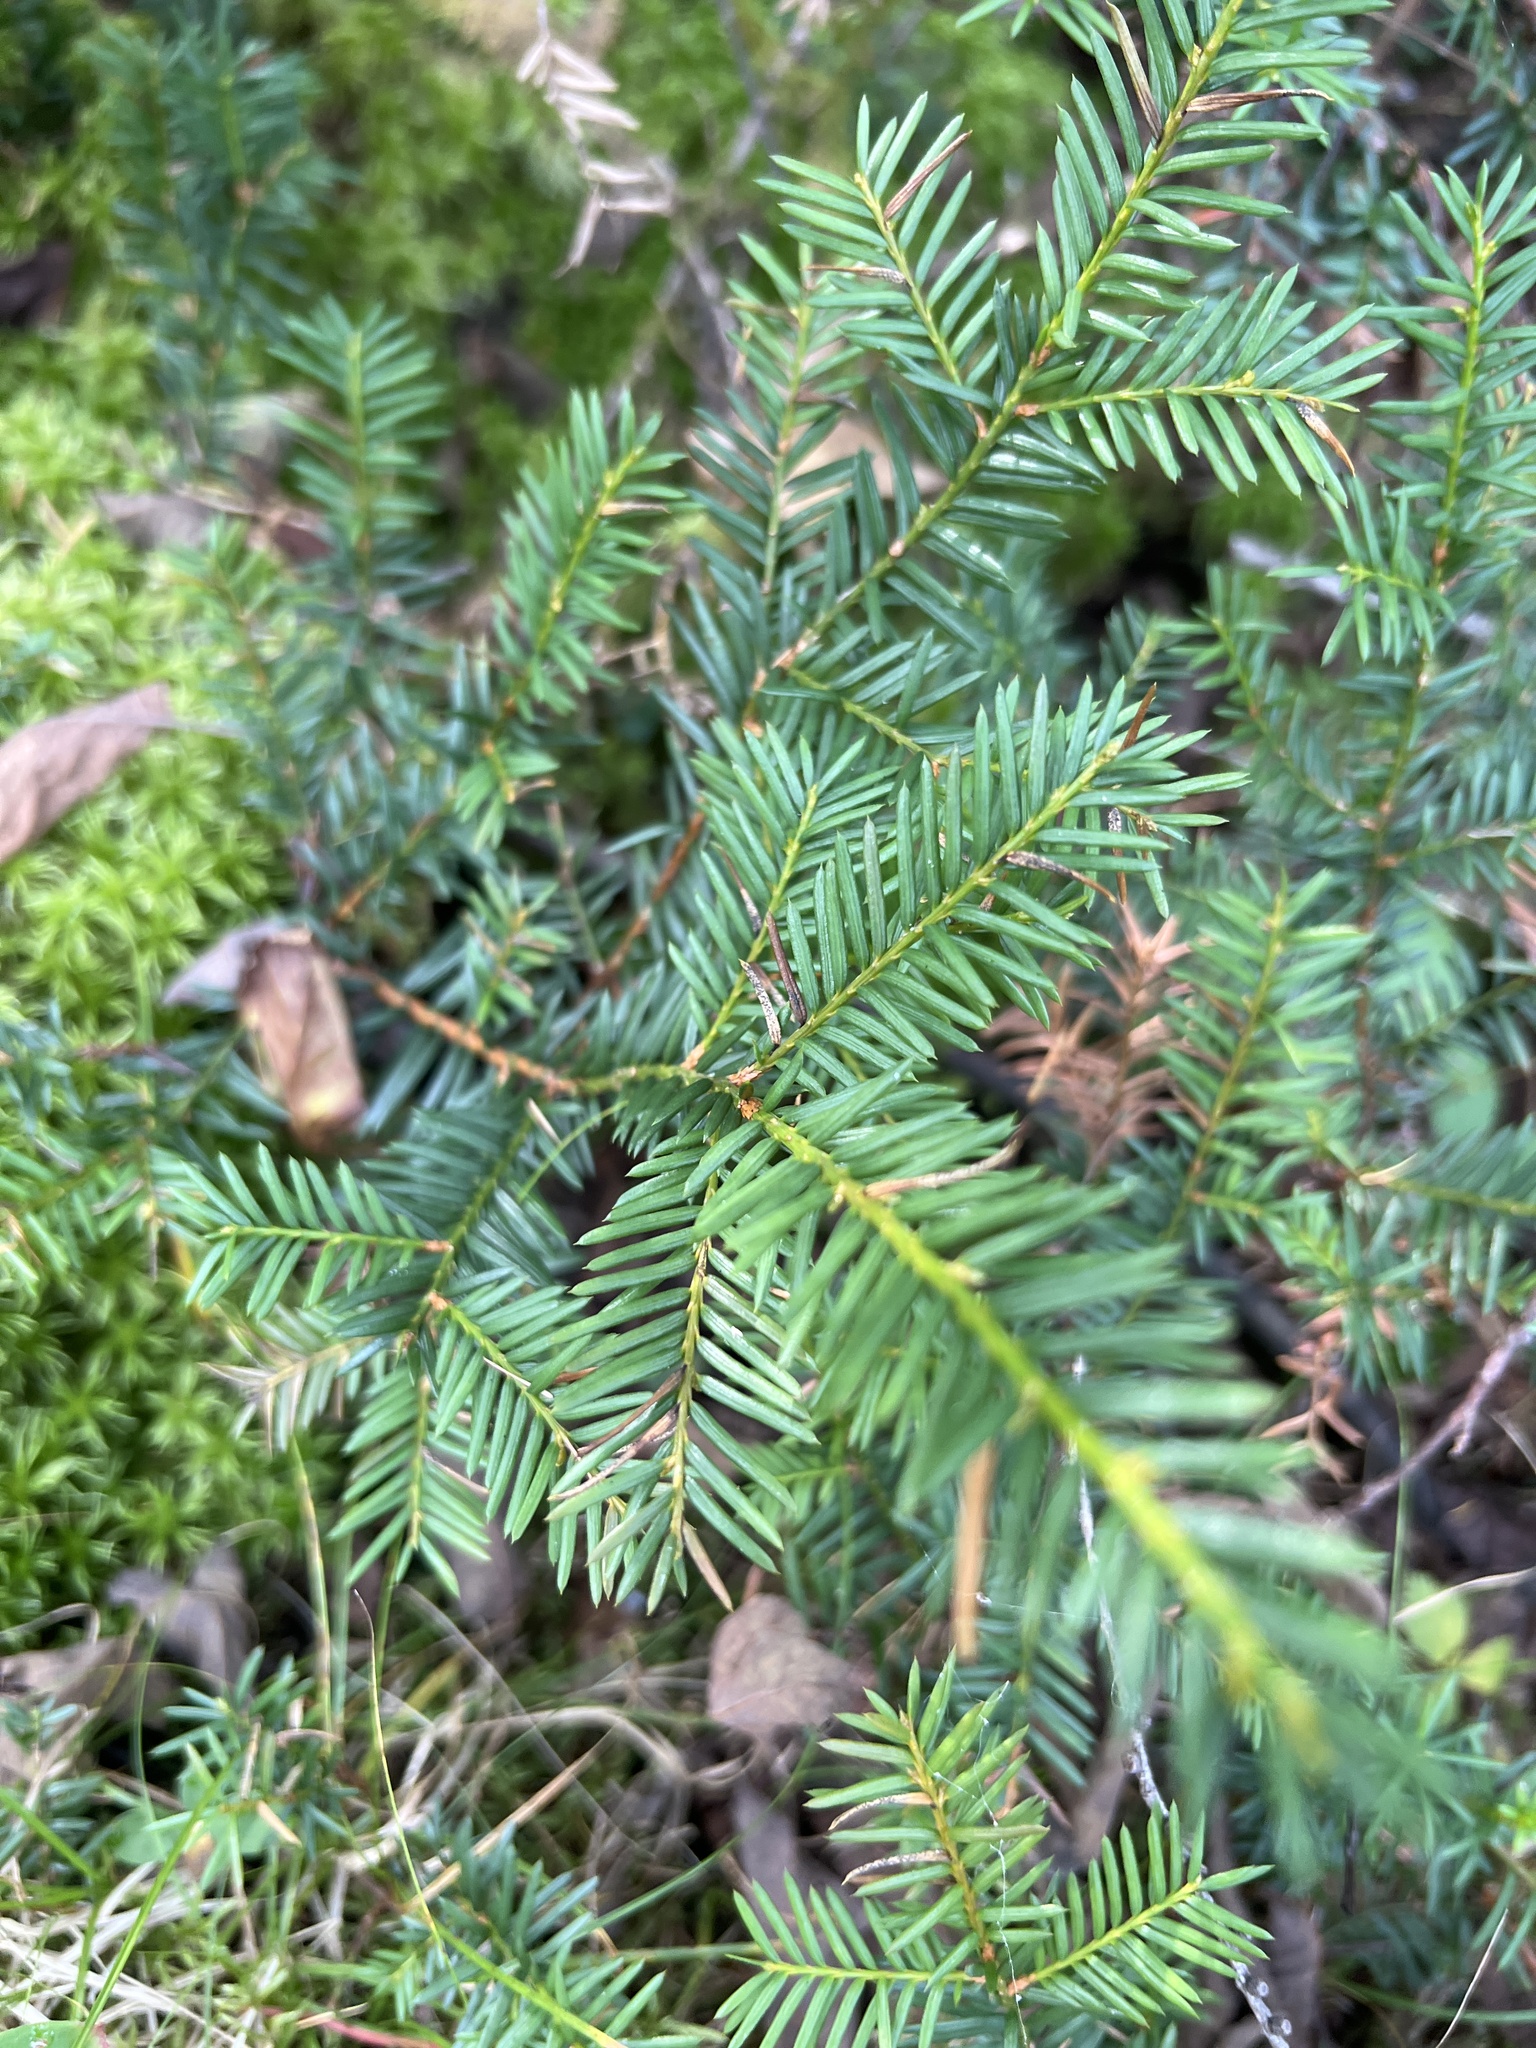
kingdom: Plantae
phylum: Tracheophyta
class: Pinopsida
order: Pinales
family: Taxaceae
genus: Taxus
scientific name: Taxus canadensis
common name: American yew
